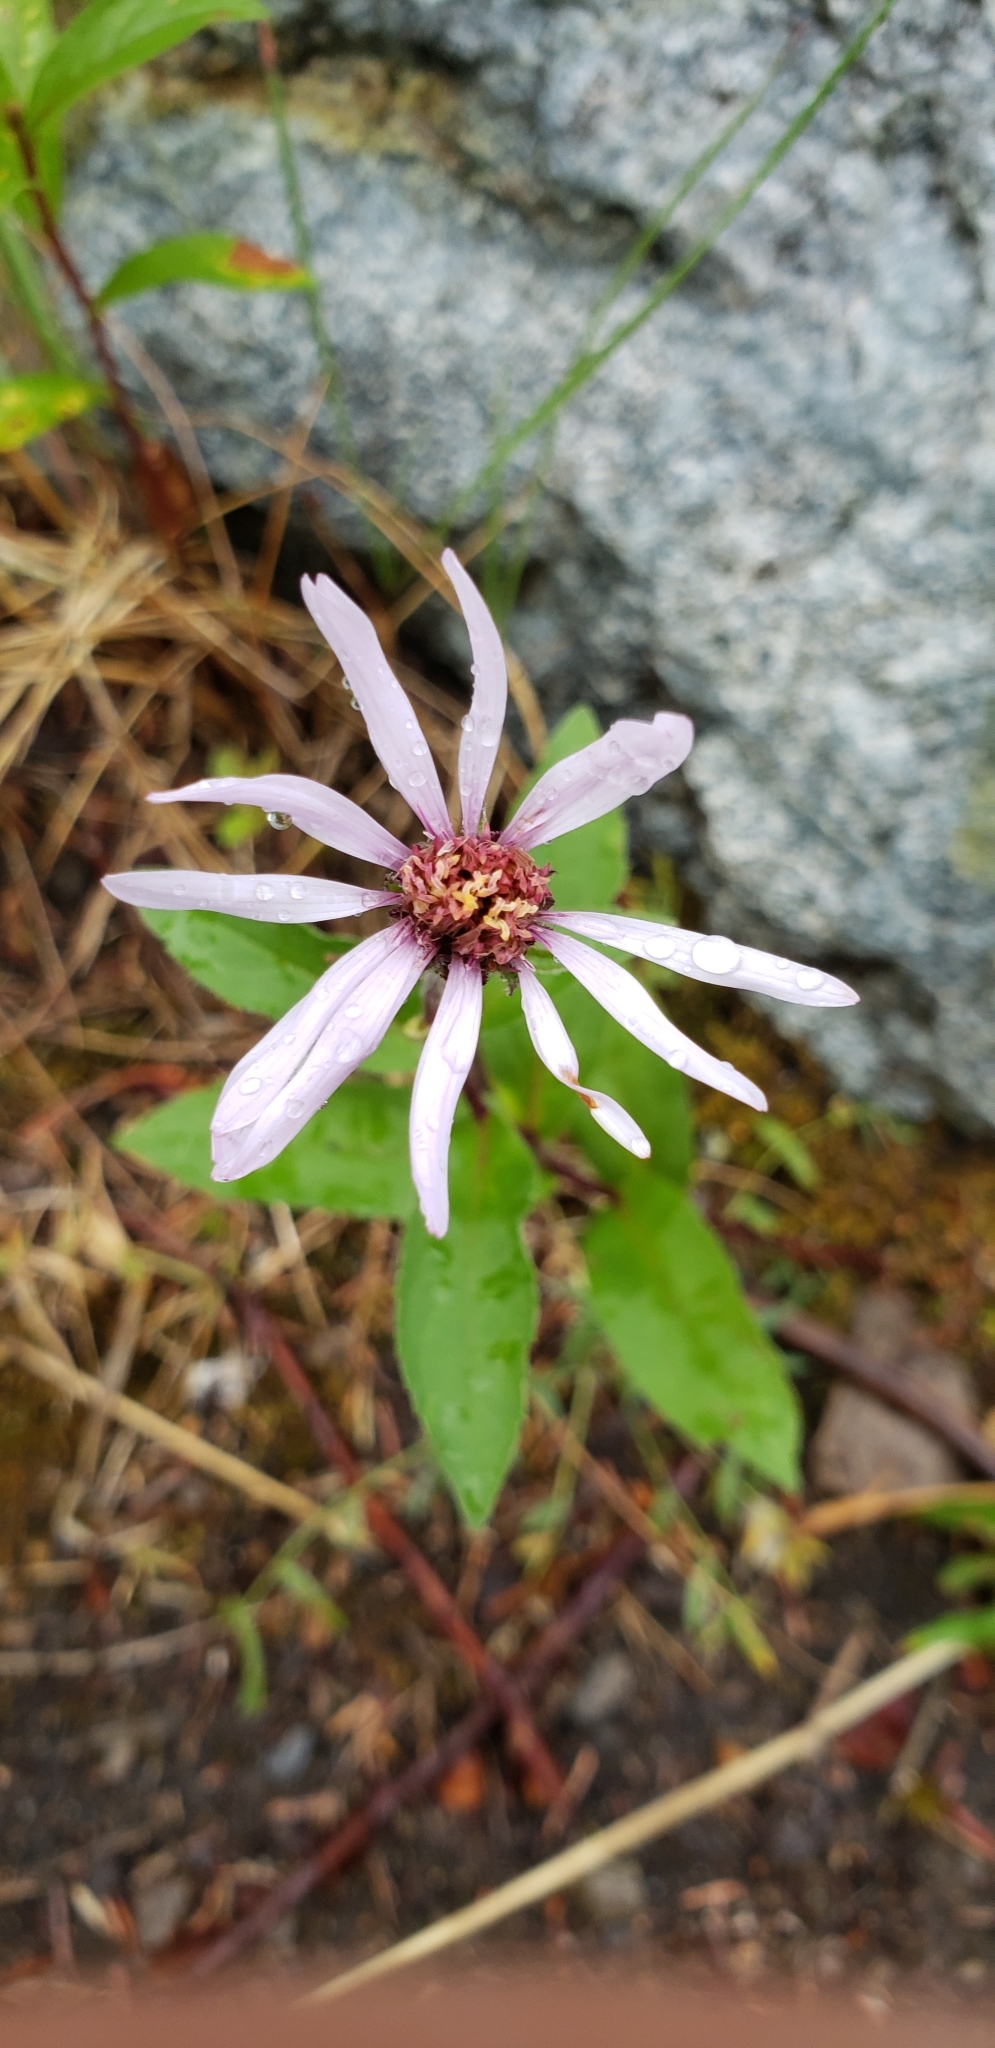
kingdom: Plantae
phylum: Tracheophyta
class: Magnoliopsida
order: Asterales
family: Asteraceae
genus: Eurybia
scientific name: Eurybia sibirica
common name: Arctic aster
